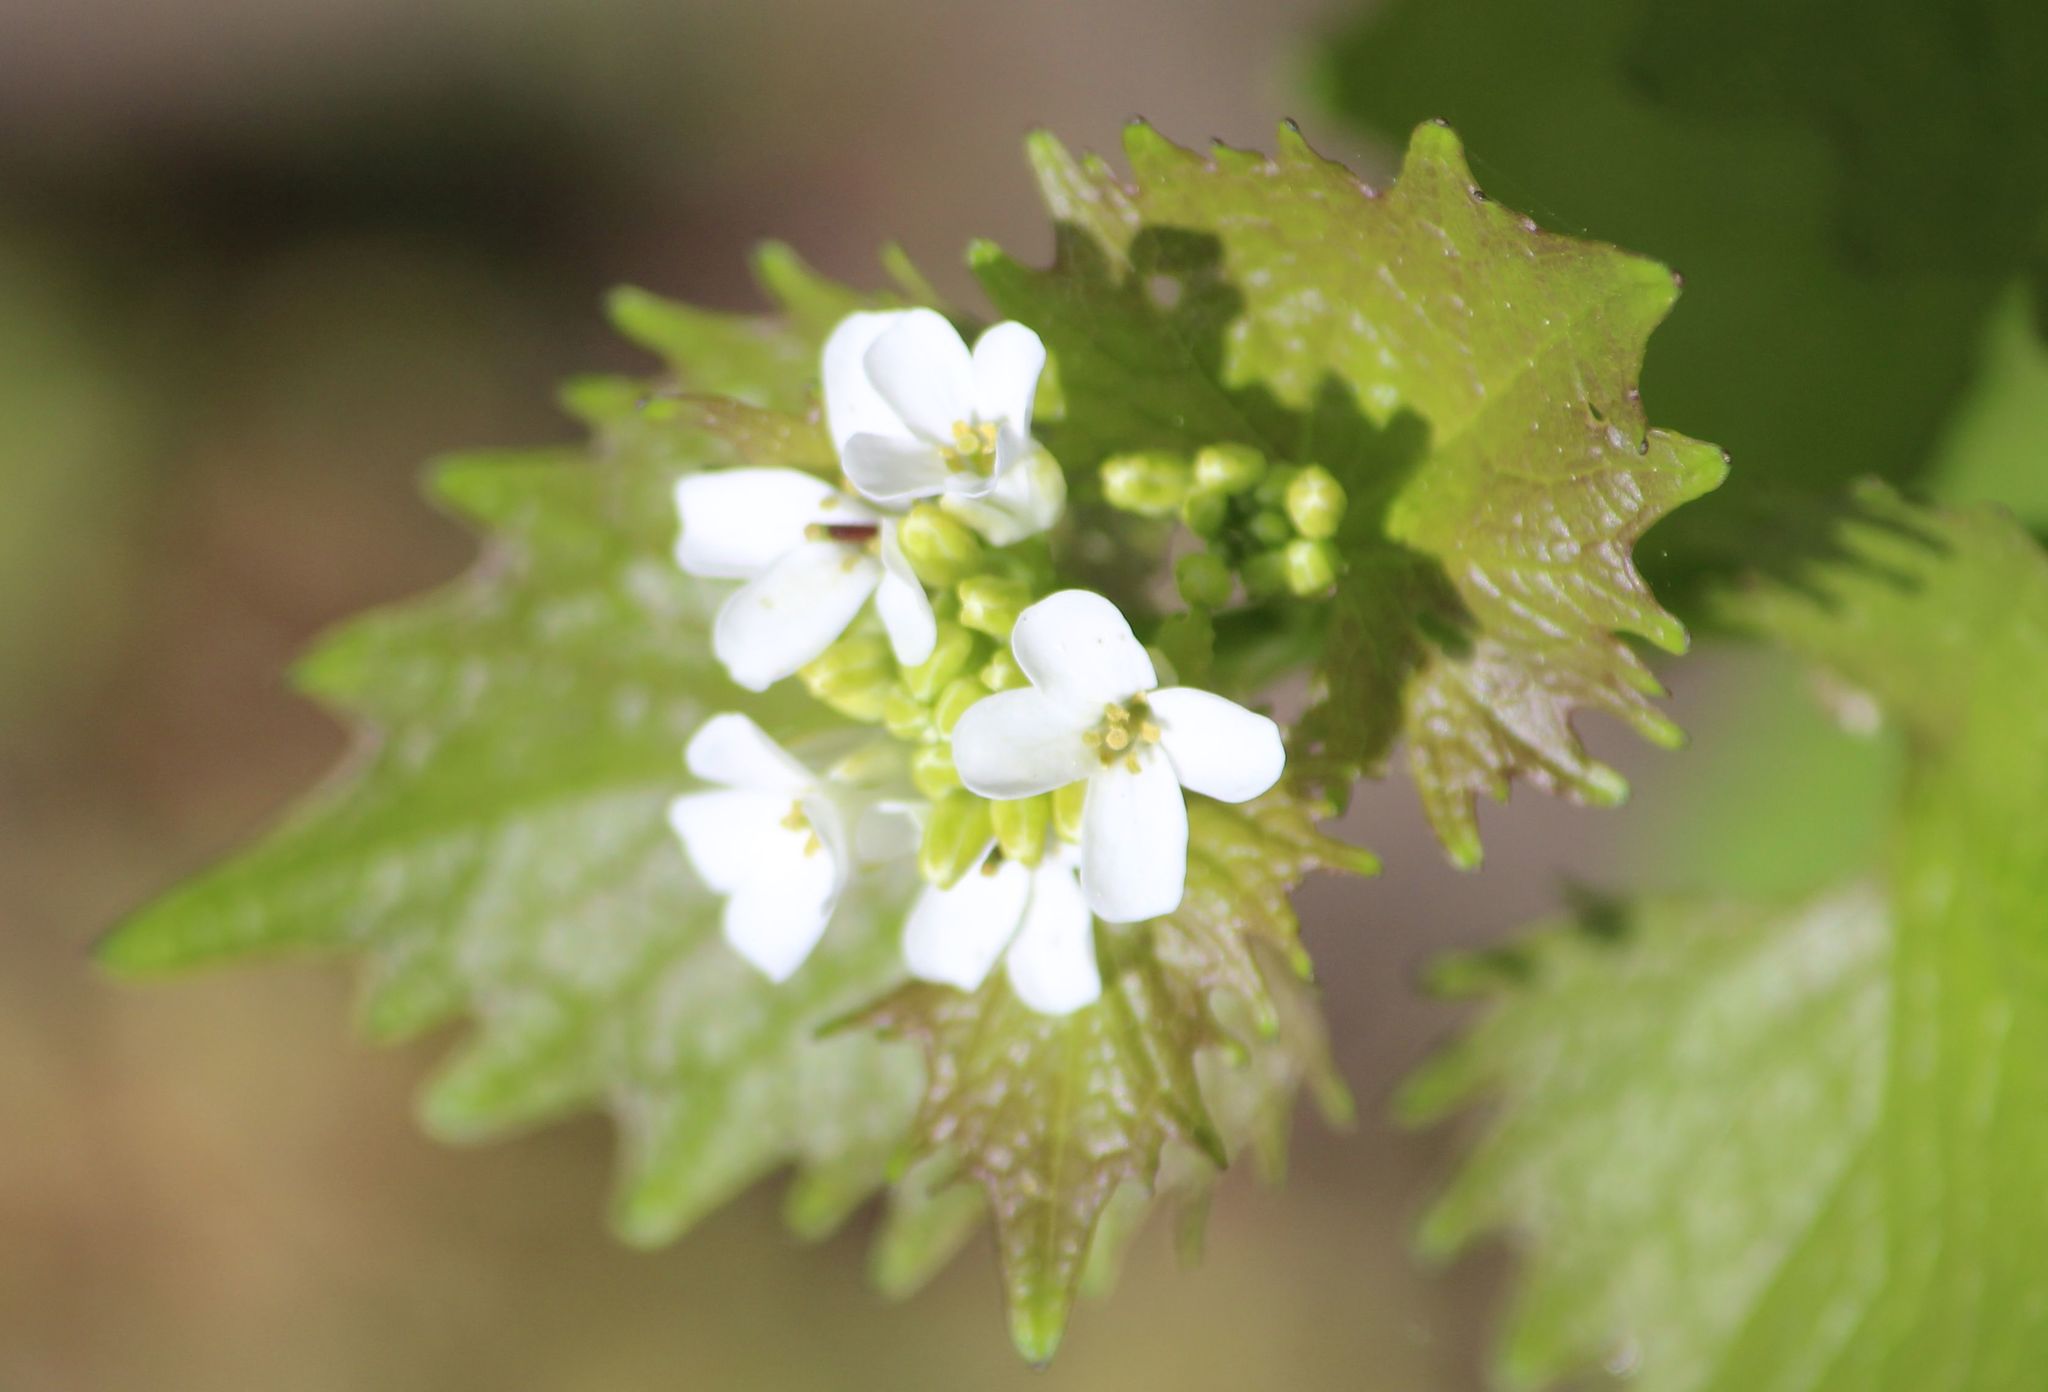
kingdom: Plantae
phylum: Tracheophyta
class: Magnoliopsida
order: Brassicales
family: Brassicaceae
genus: Alliaria
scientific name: Alliaria petiolata
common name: Garlic mustard
